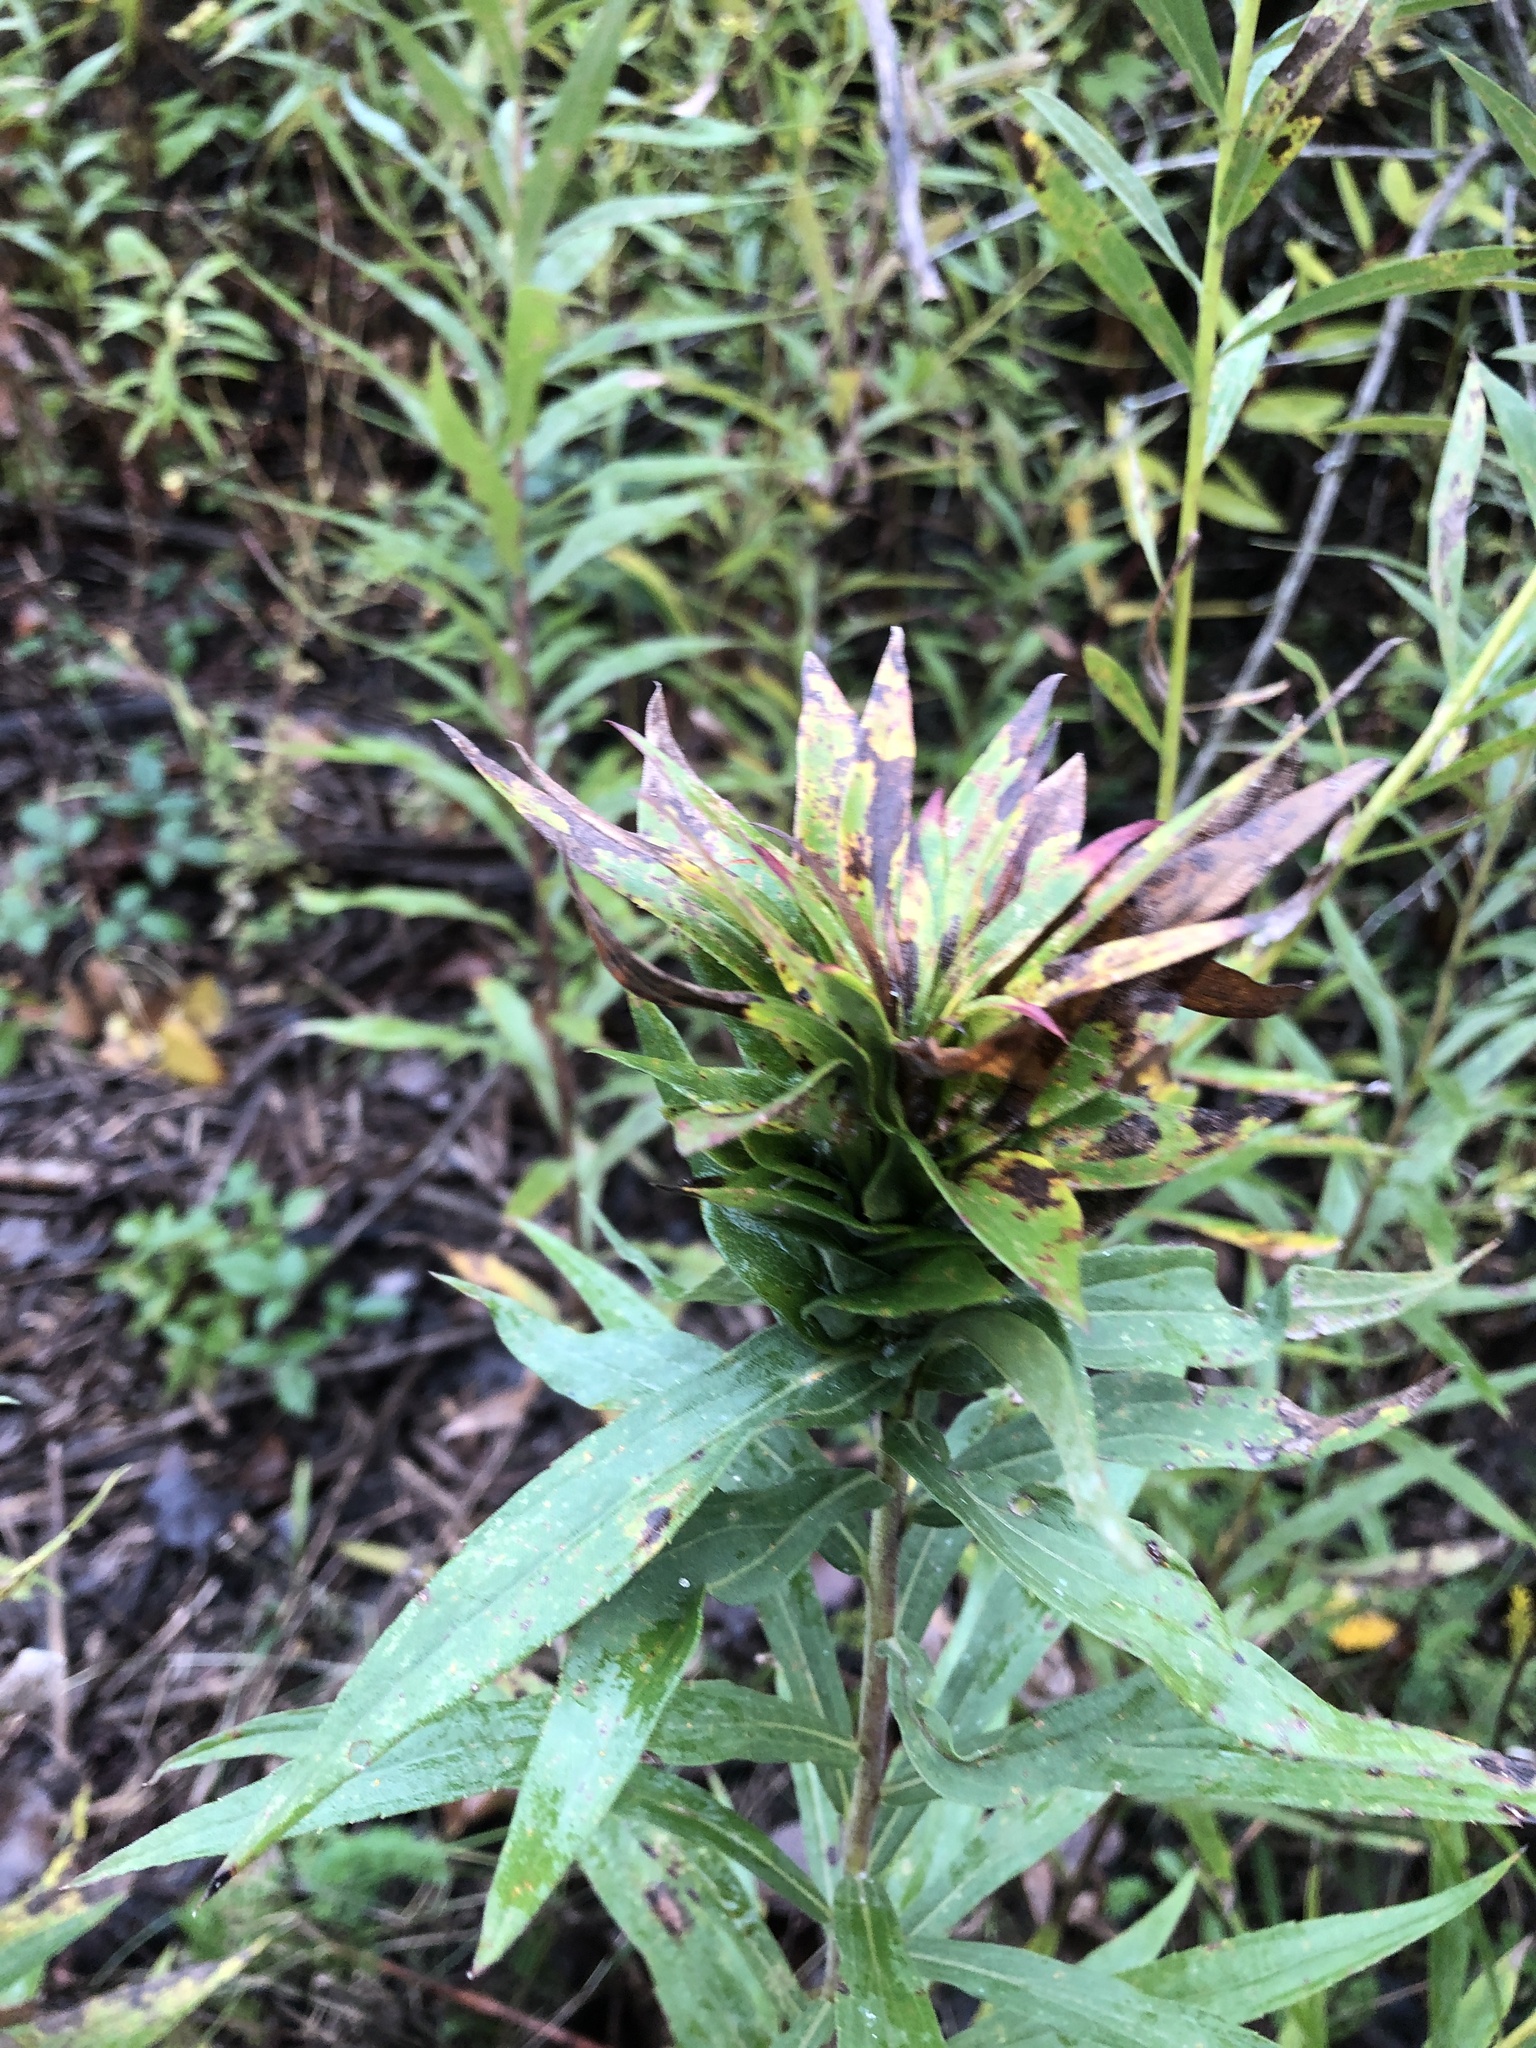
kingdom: Animalia
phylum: Arthropoda
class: Insecta
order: Diptera
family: Cecidomyiidae
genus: Rhopalomyia
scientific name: Rhopalomyia solidaginis
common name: Goldenrod bunch gall midge
